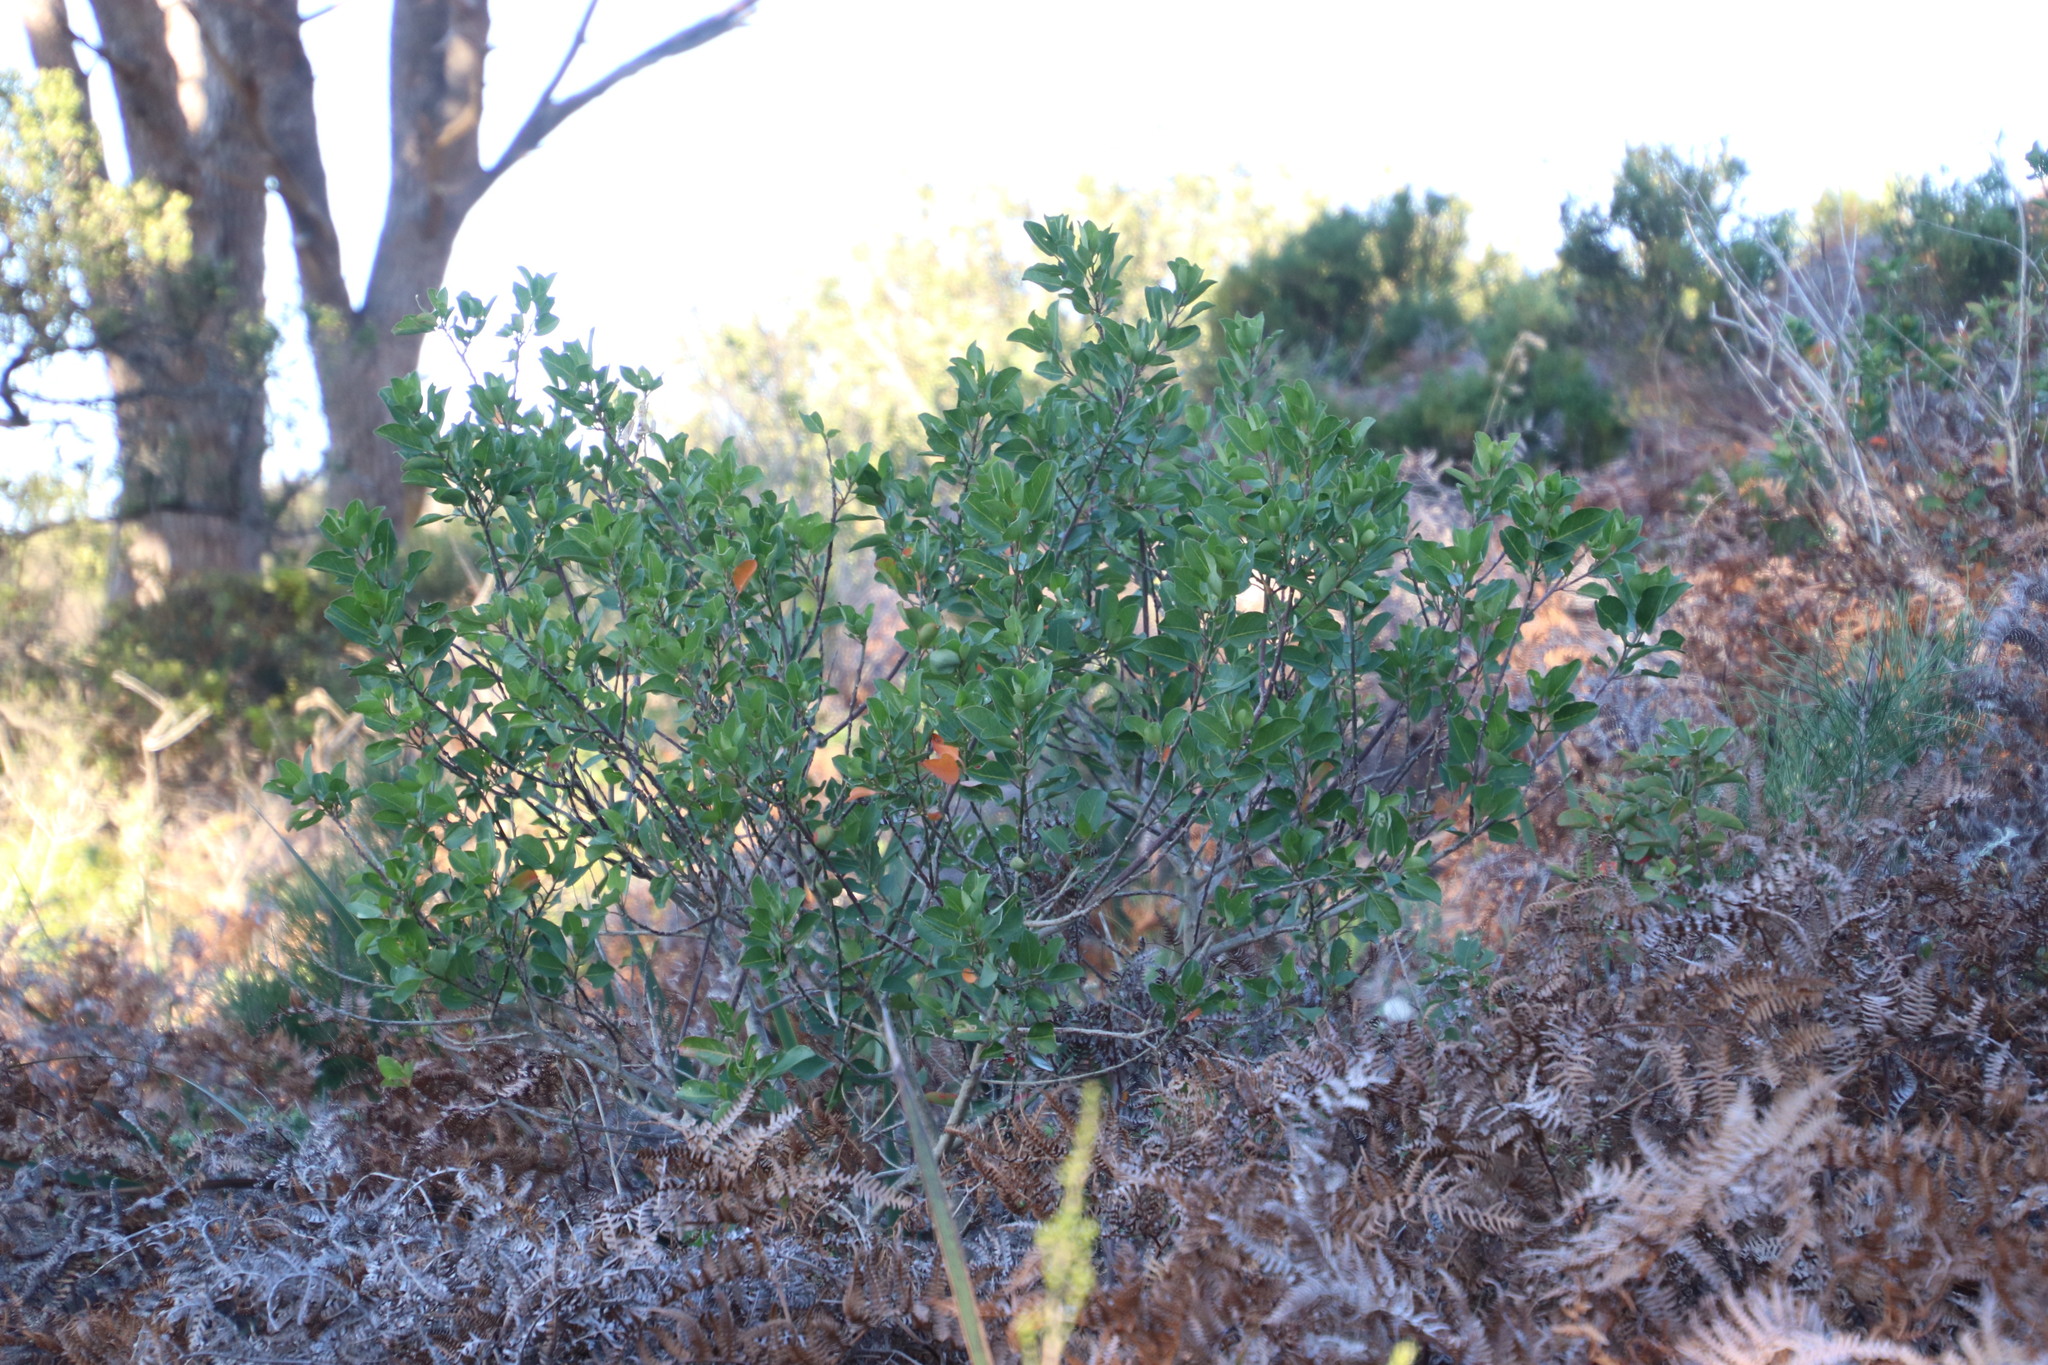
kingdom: Plantae
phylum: Tracheophyta
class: Magnoliopsida
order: Malpighiales
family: Peraceae
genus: Clutia
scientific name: Clutia pulchella
